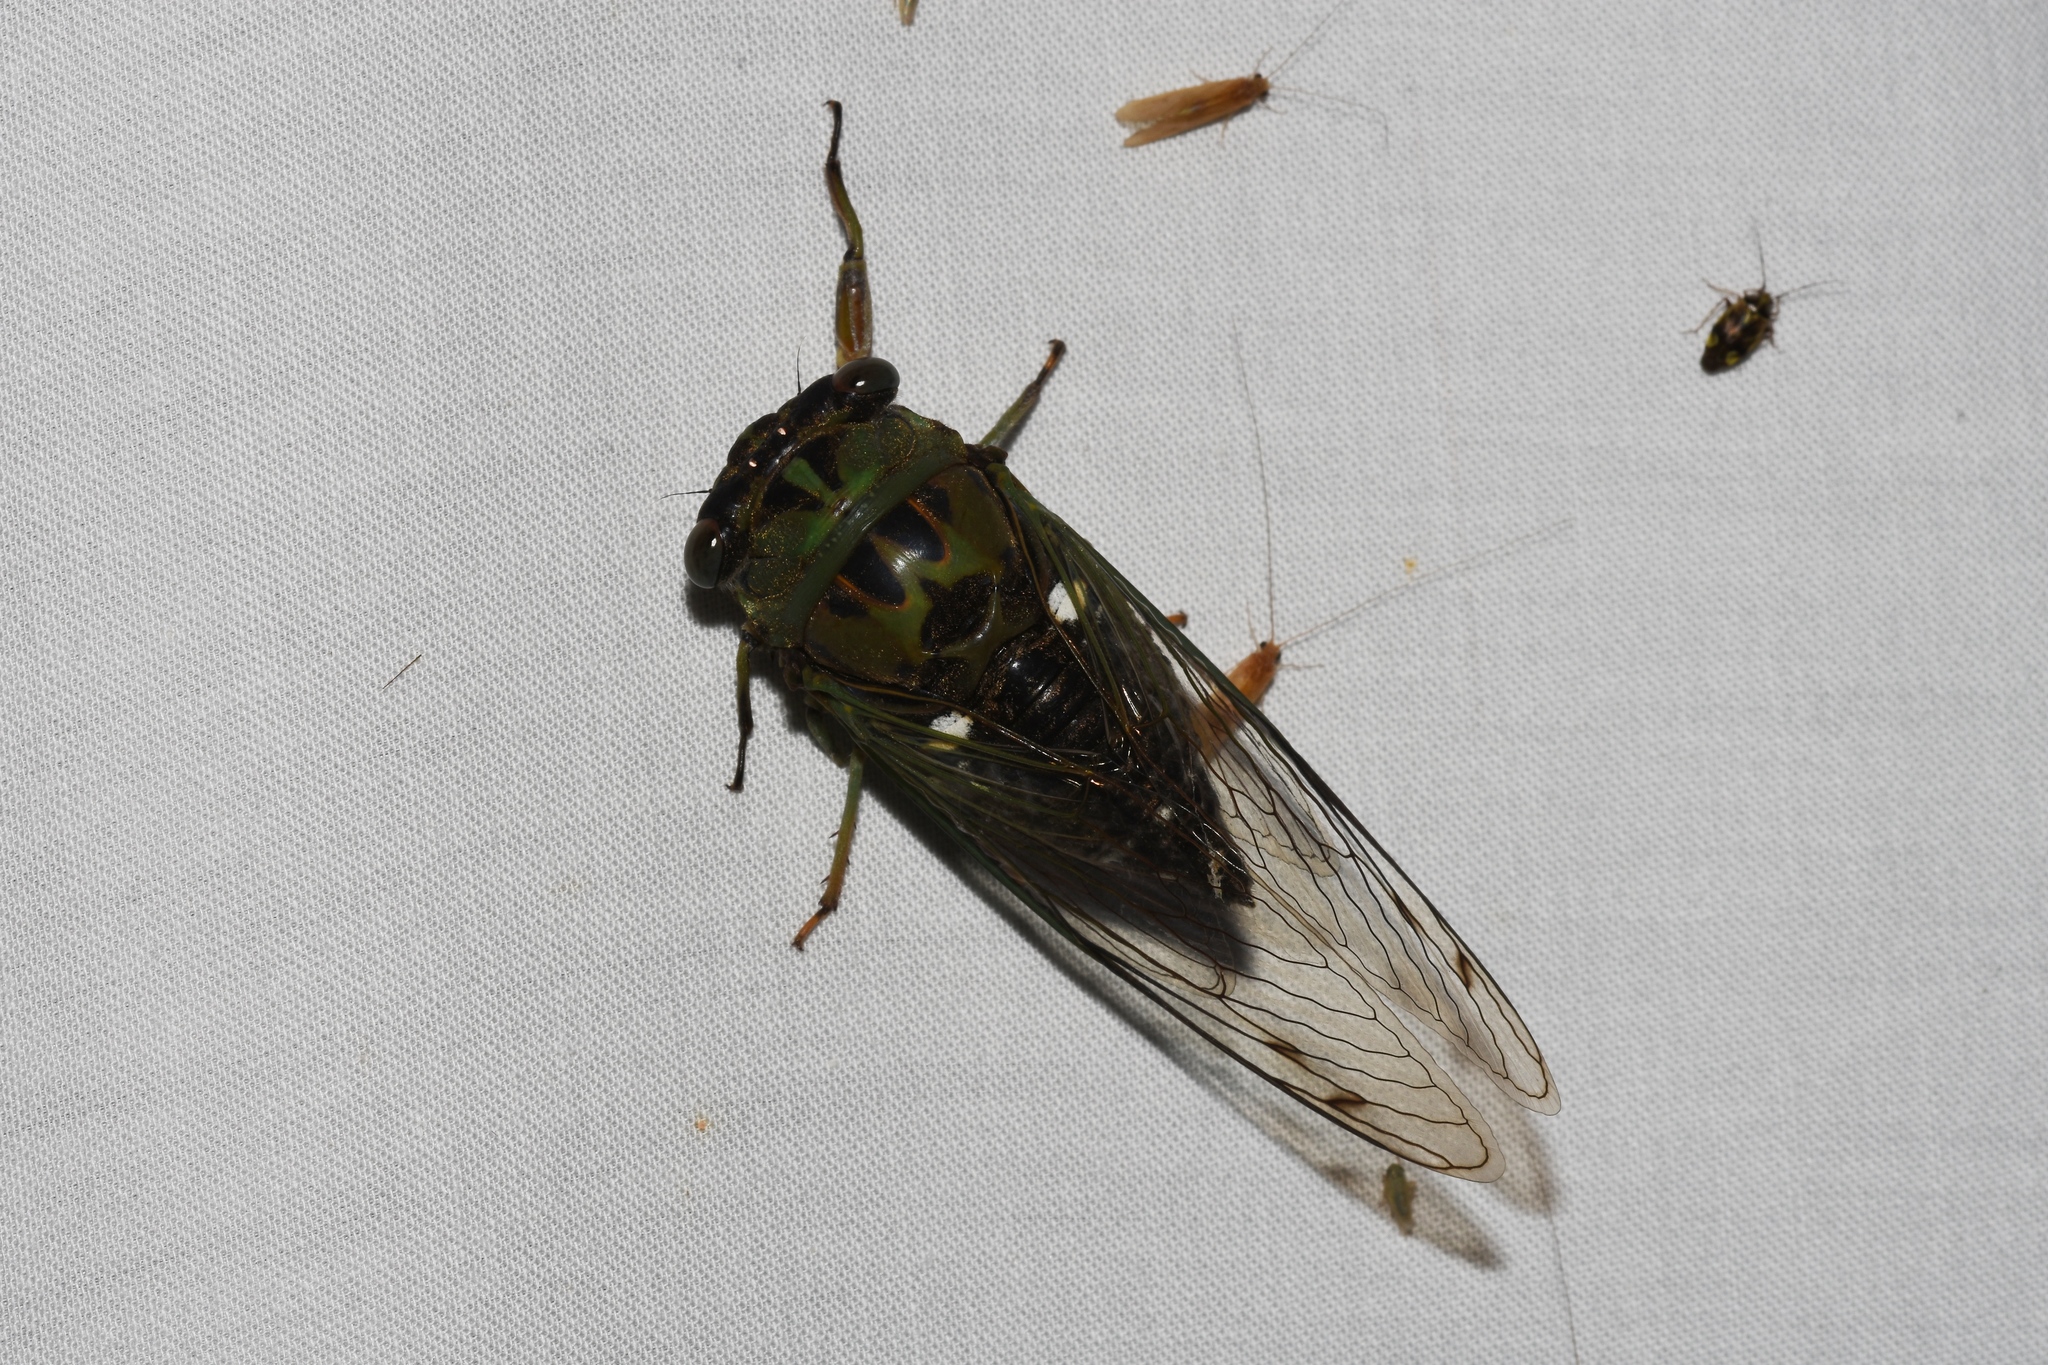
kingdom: Animalia
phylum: Arthropoda
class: Insecta
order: Hemiptera
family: Cicadidae
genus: Neotibicen
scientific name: Neotibicen pruinosus
